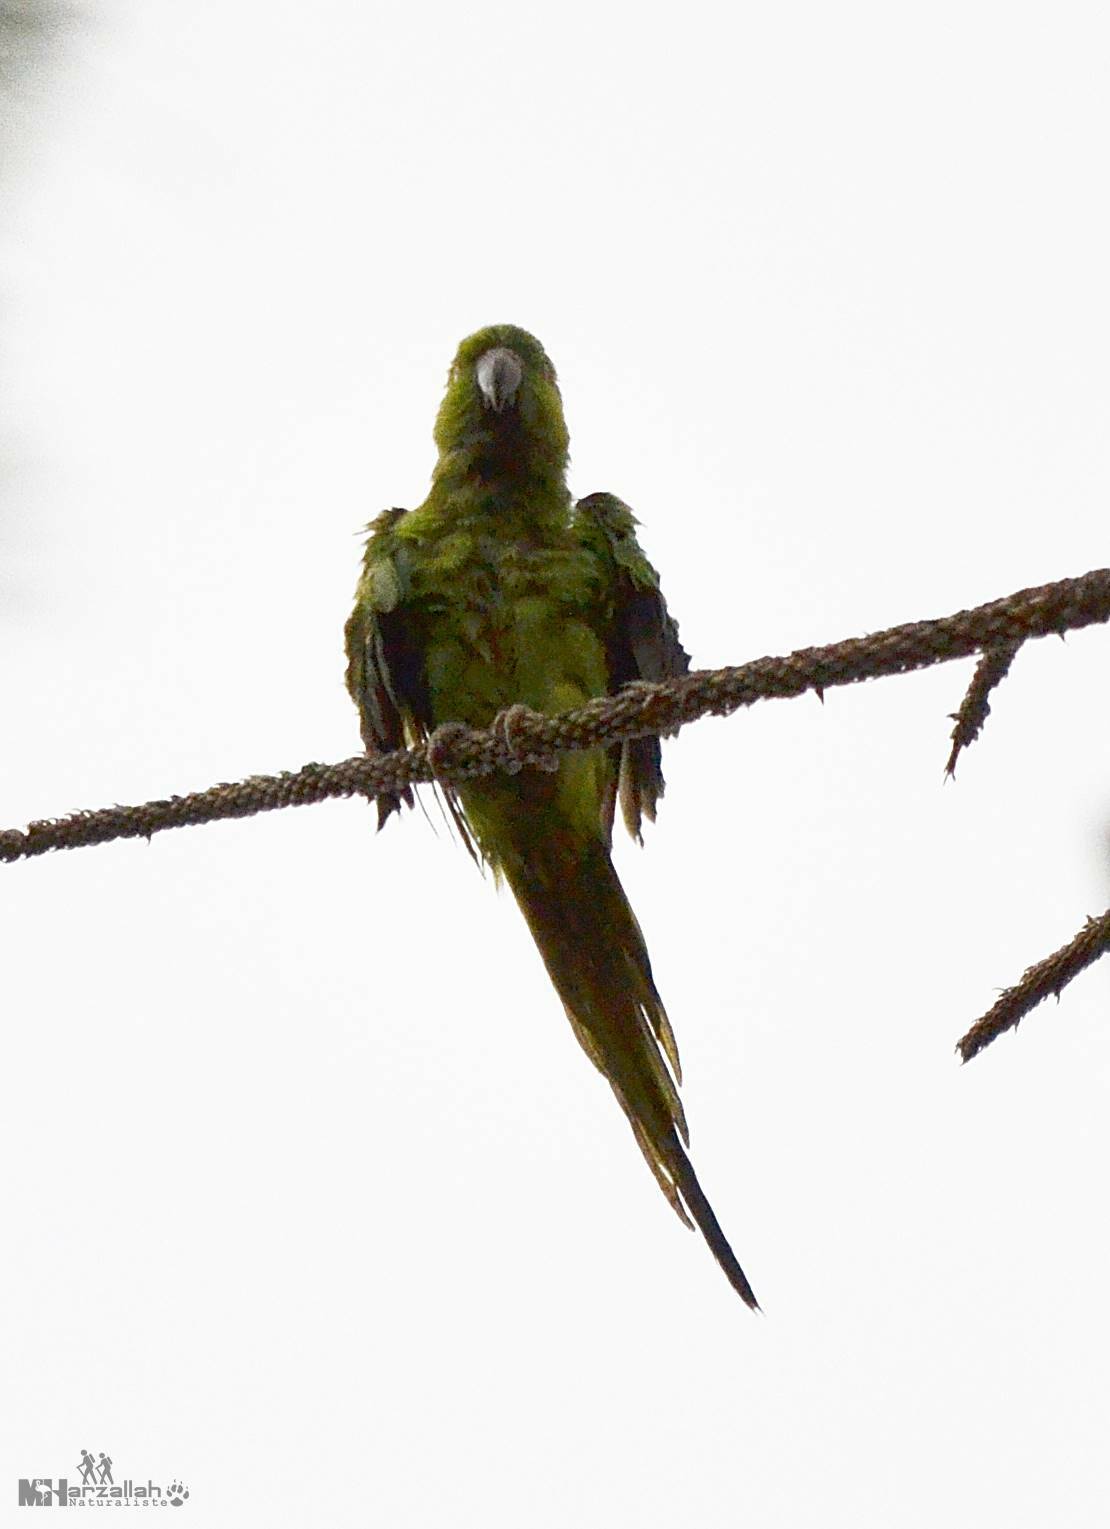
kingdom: Animalia
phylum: Chordata
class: Aves
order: Psittaciformes
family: Psittacidae
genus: Psittacula
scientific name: Psittacula krameri
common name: Rose-ringed parakeet
